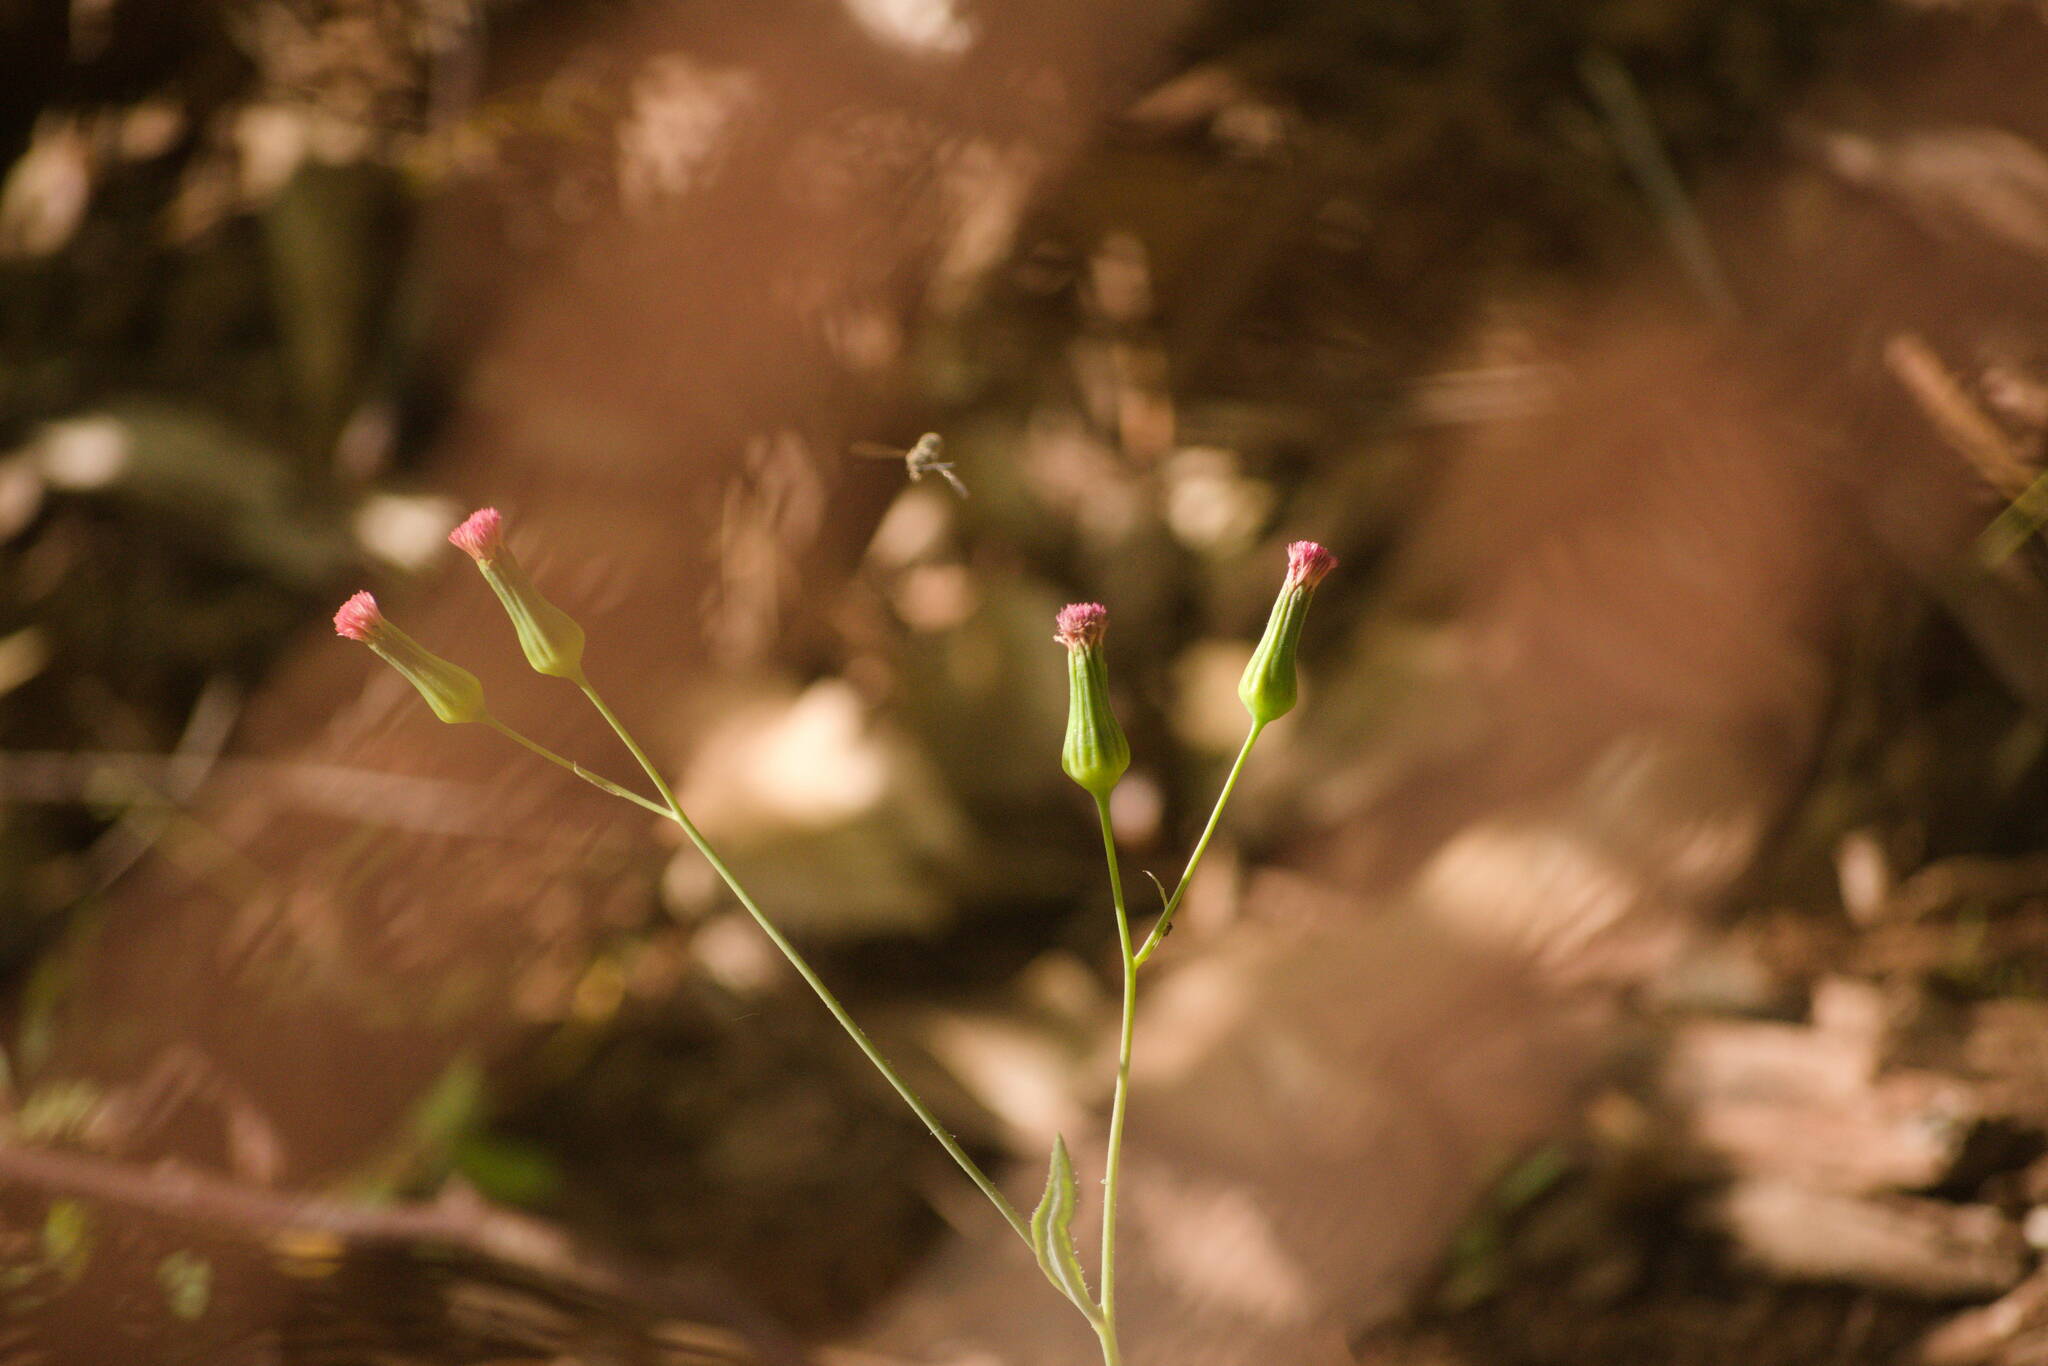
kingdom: Plantae
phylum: Tracheophyta
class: Magnoliopsida
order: Asterales
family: Asteraceae
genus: Emilia
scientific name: Emilia sonchifolia
